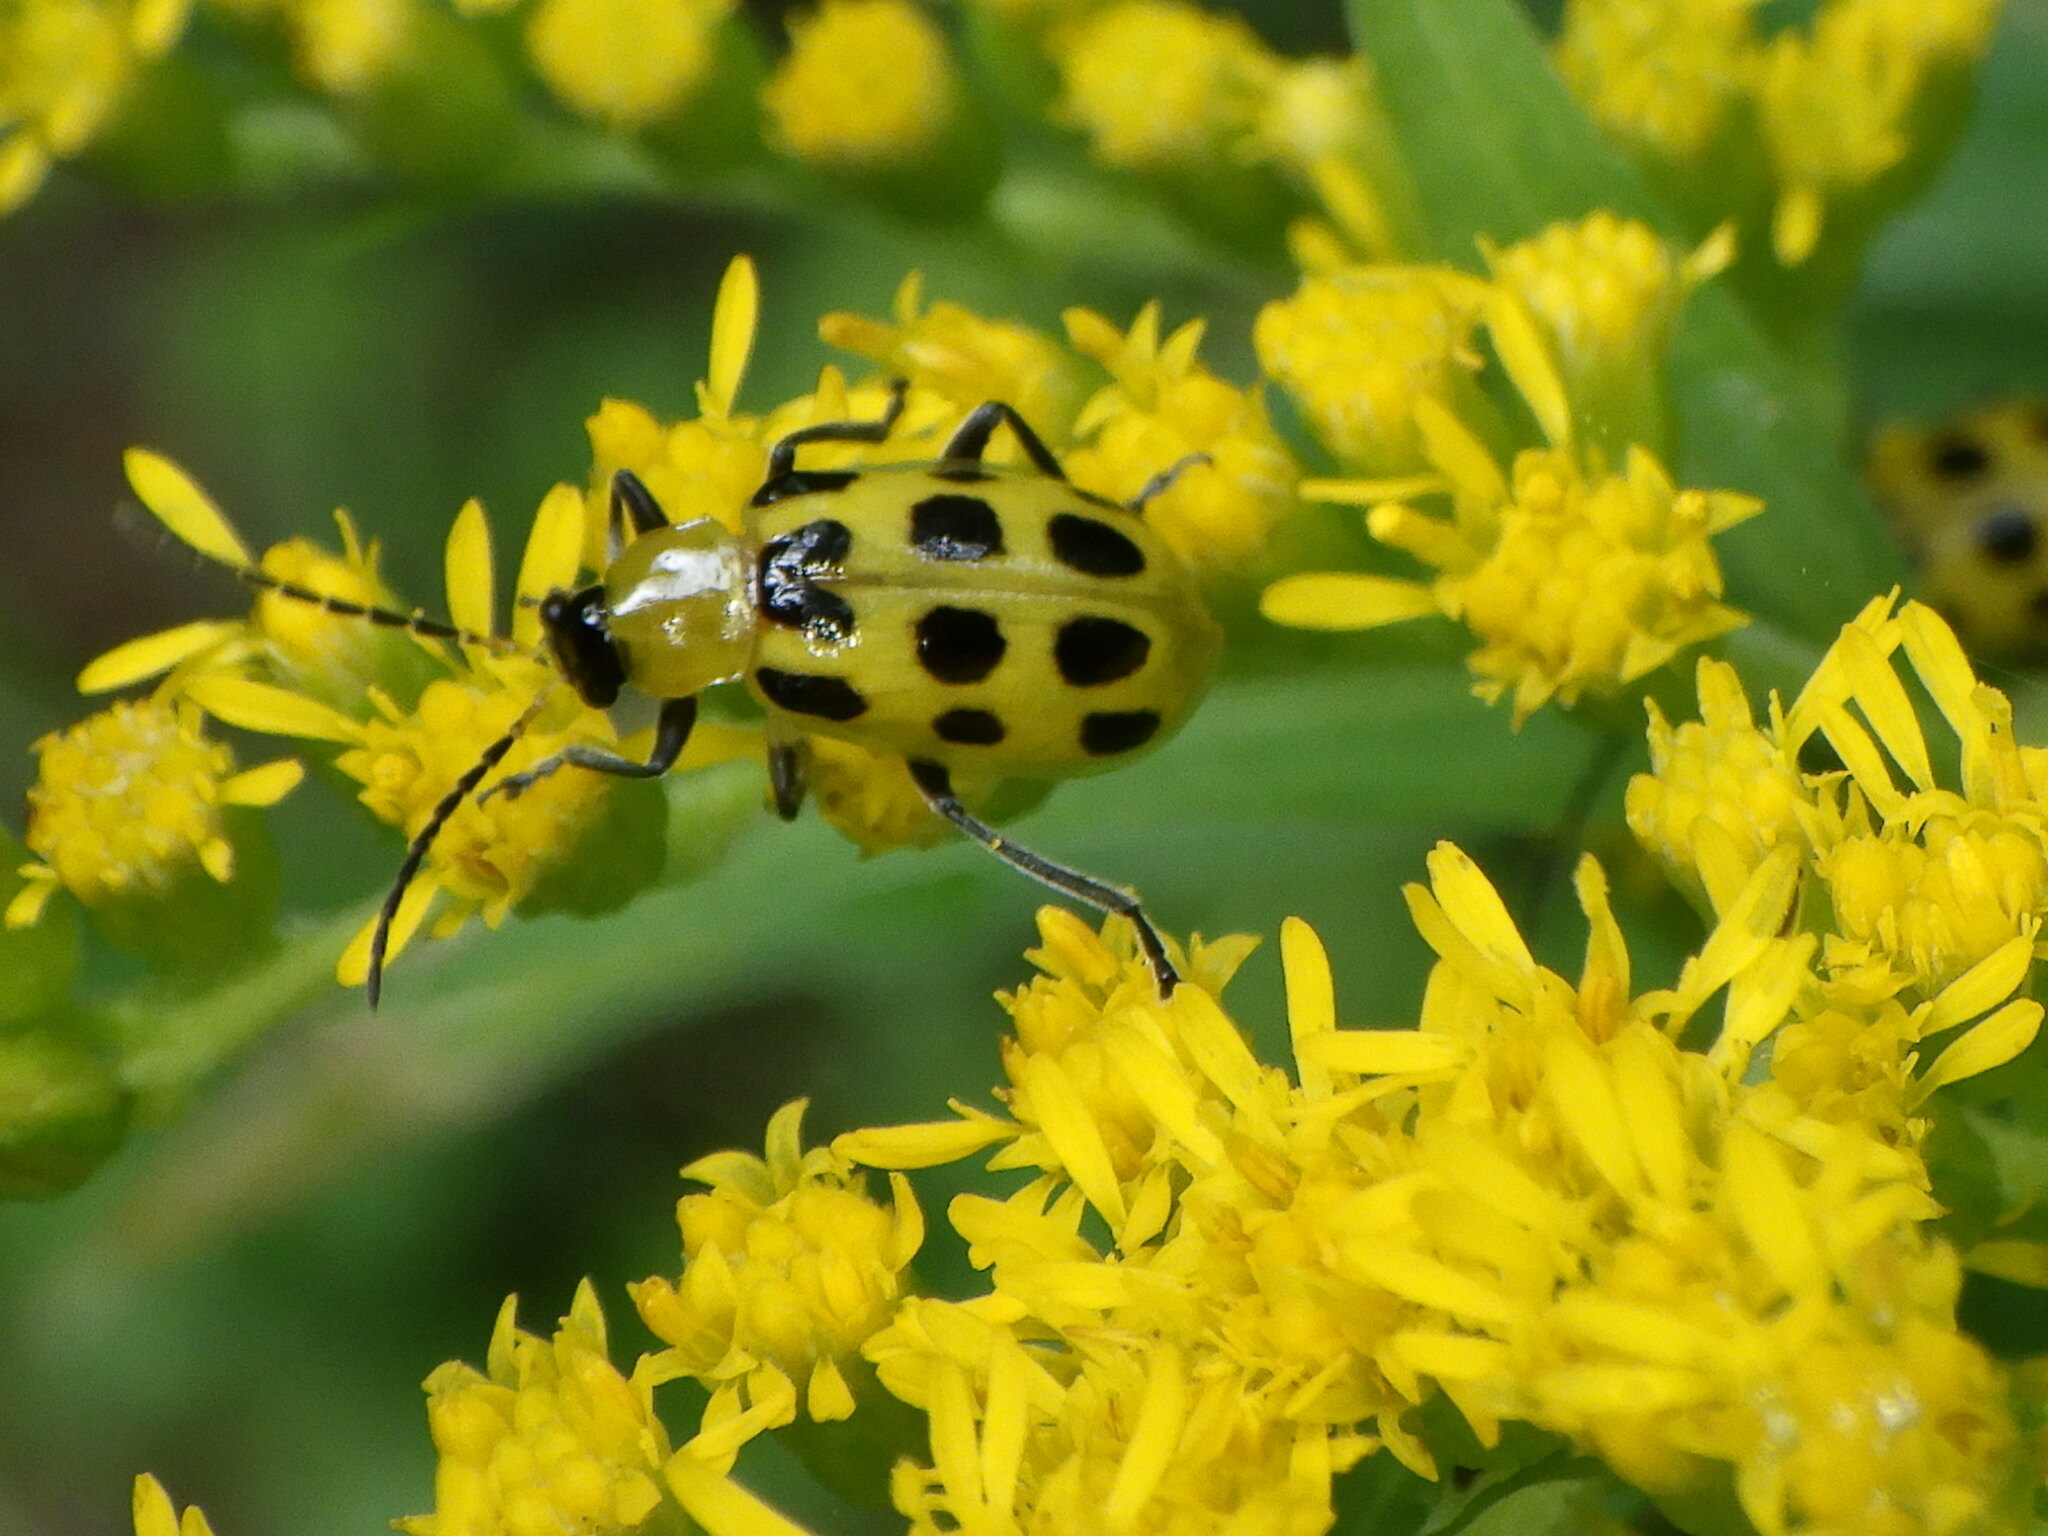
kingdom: Animalia
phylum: Arthropoda
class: Insecta
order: Coleoptera
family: Chrysomelidae
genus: Diabrotica
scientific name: Diabrotica undecimpunctata
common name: Spotted cucumber beetle
